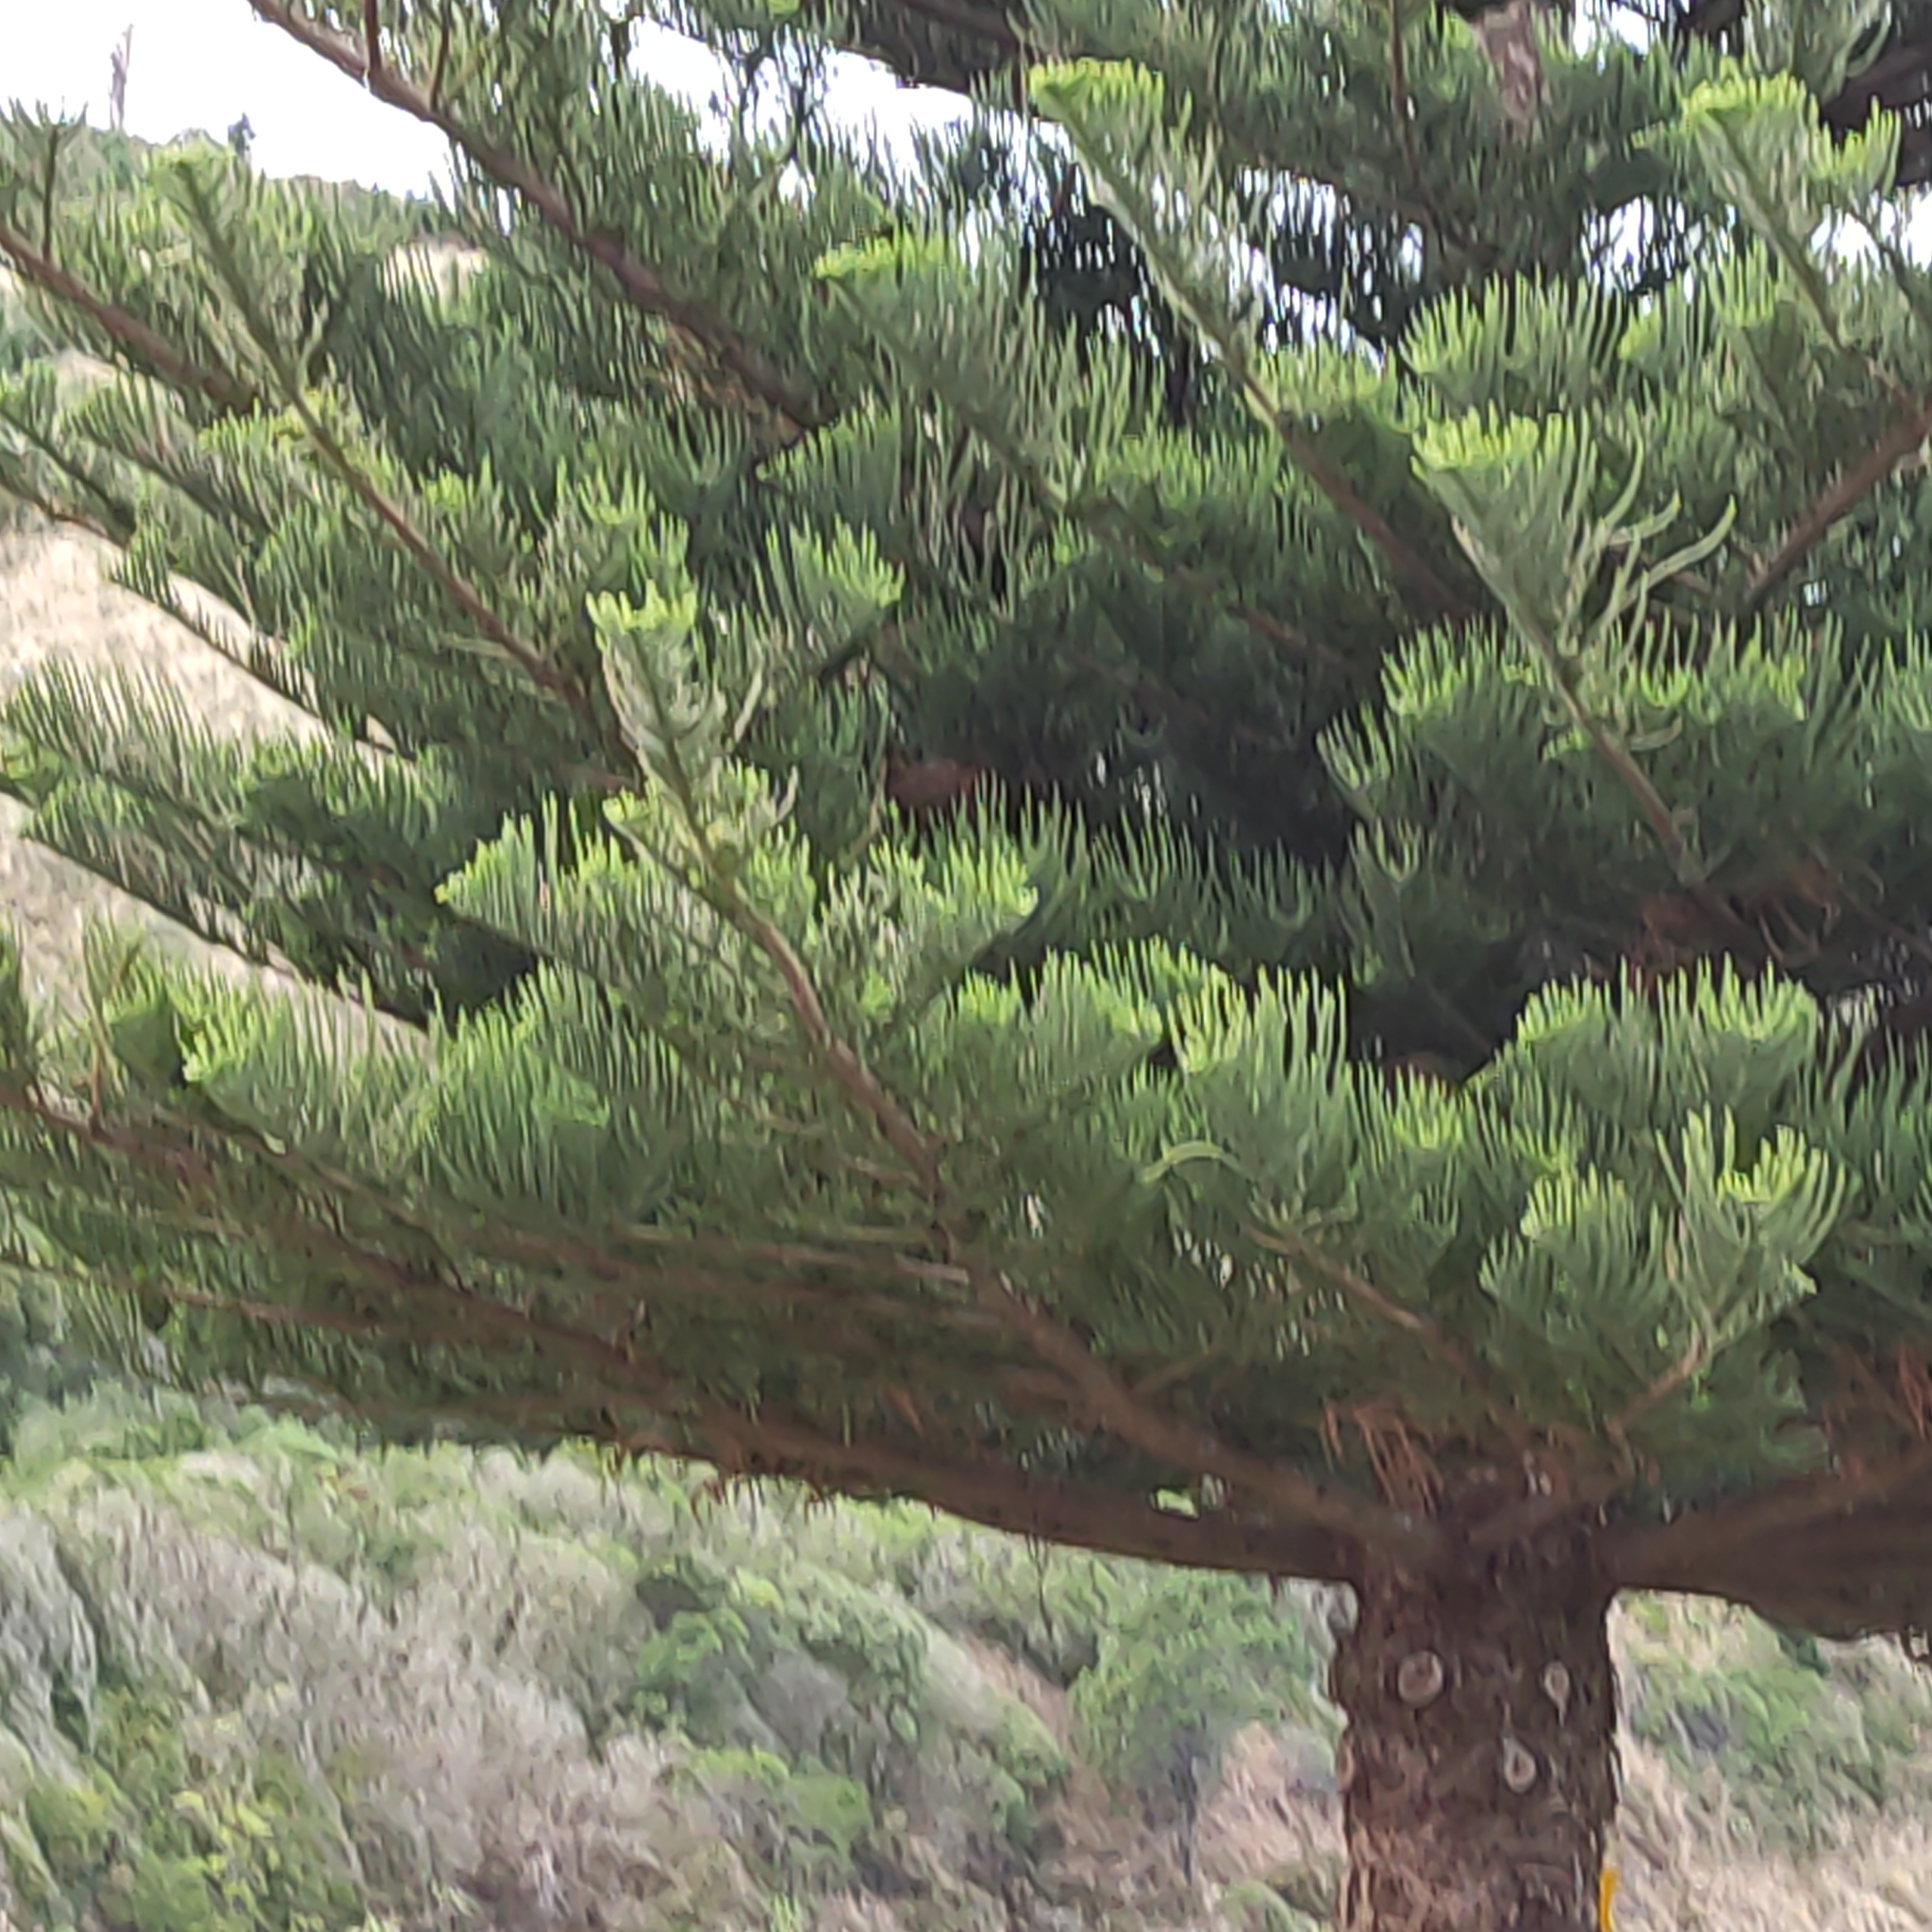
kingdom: Plantae
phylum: Tracheophyta
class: Pinopsida
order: Pinales
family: Araucariaceae
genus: Araucaria
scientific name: Araucaria heterophylla
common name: Norfolk island pine
